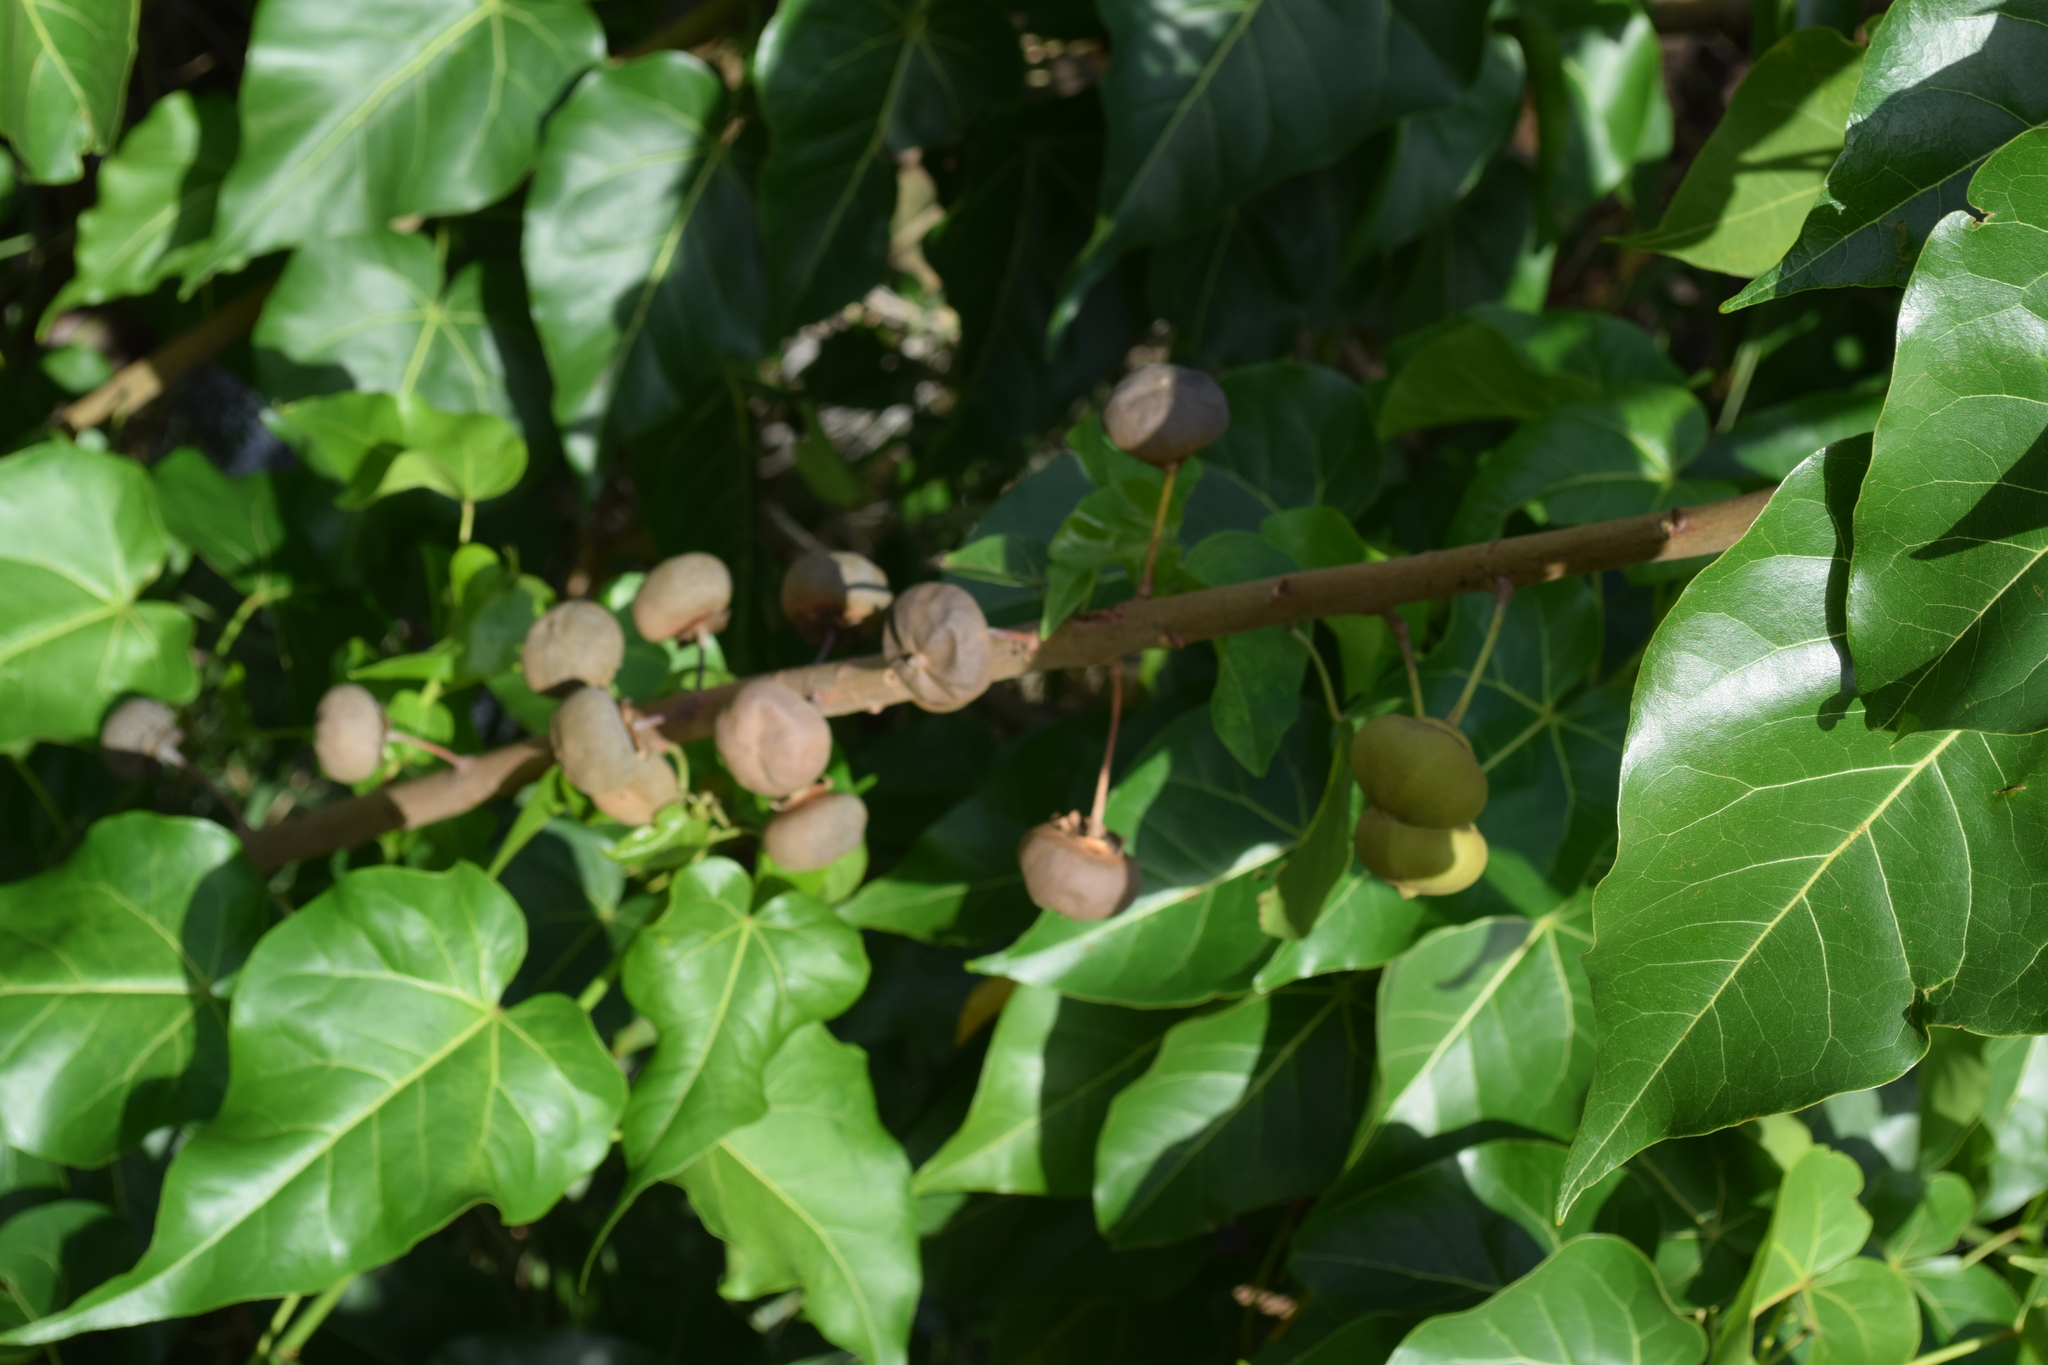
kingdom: Plantae
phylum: Tracheophyta
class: Magnoliopsida
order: Malvales
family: Malvaceae
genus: Thespesia
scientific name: Thespesia populnea
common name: Seaside mahoe
